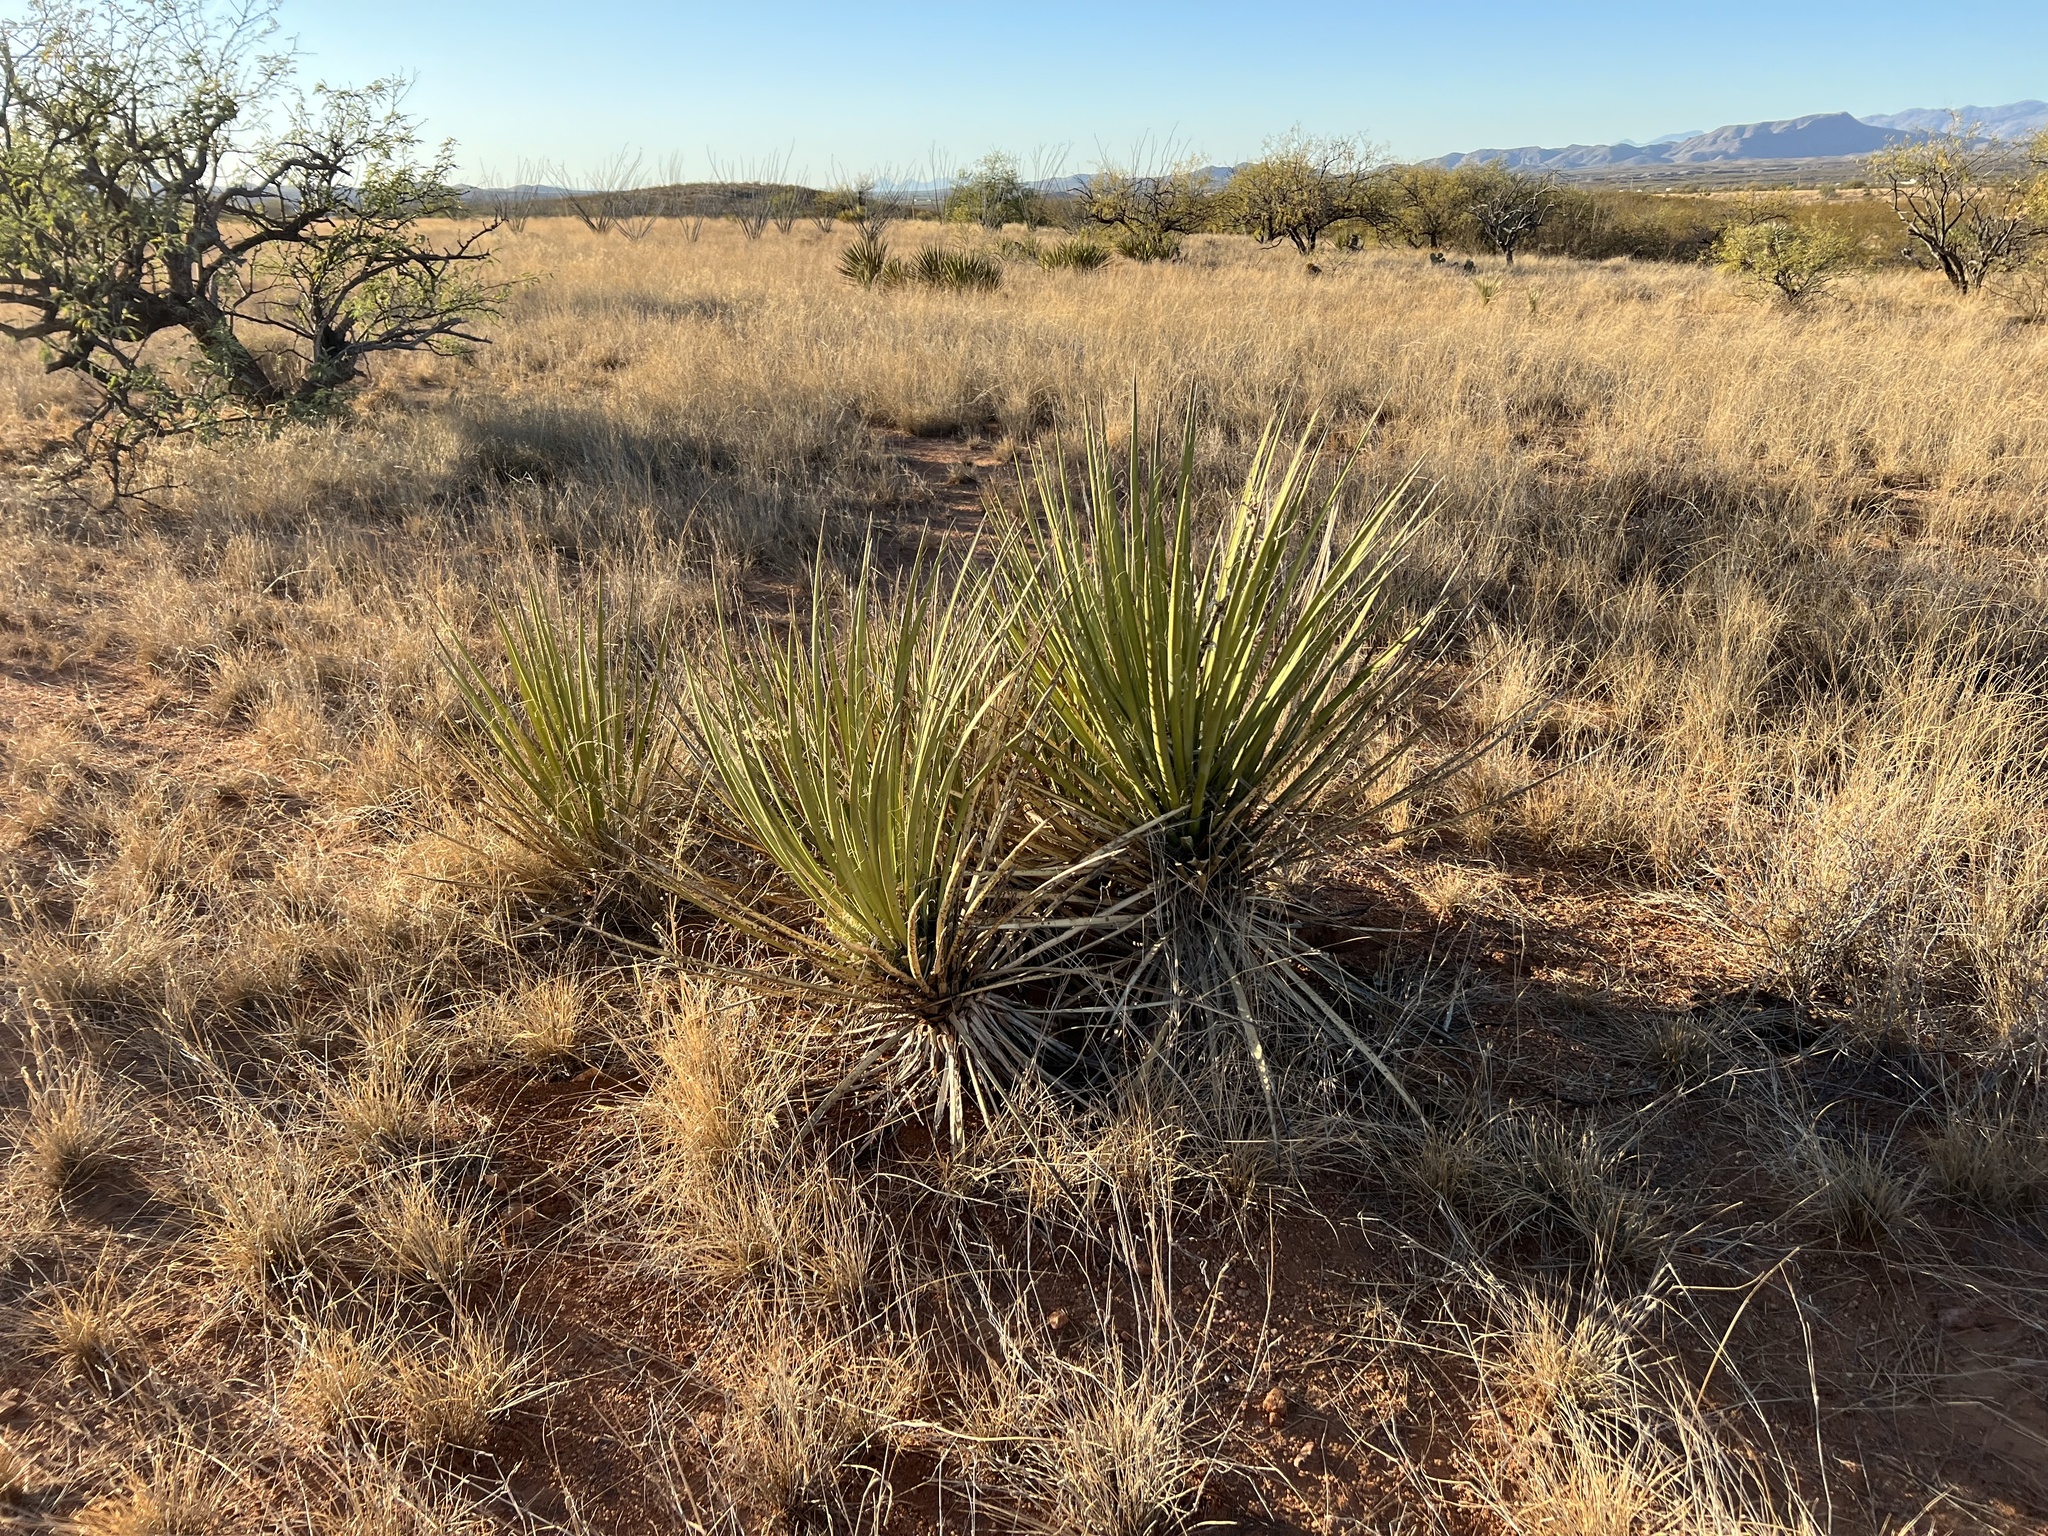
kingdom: Plantae
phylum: Tracheophyta
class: Liliopsida
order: Asparagales
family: Asparagaceae
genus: Yucca
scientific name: Yucca baccata
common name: Banana yucca
